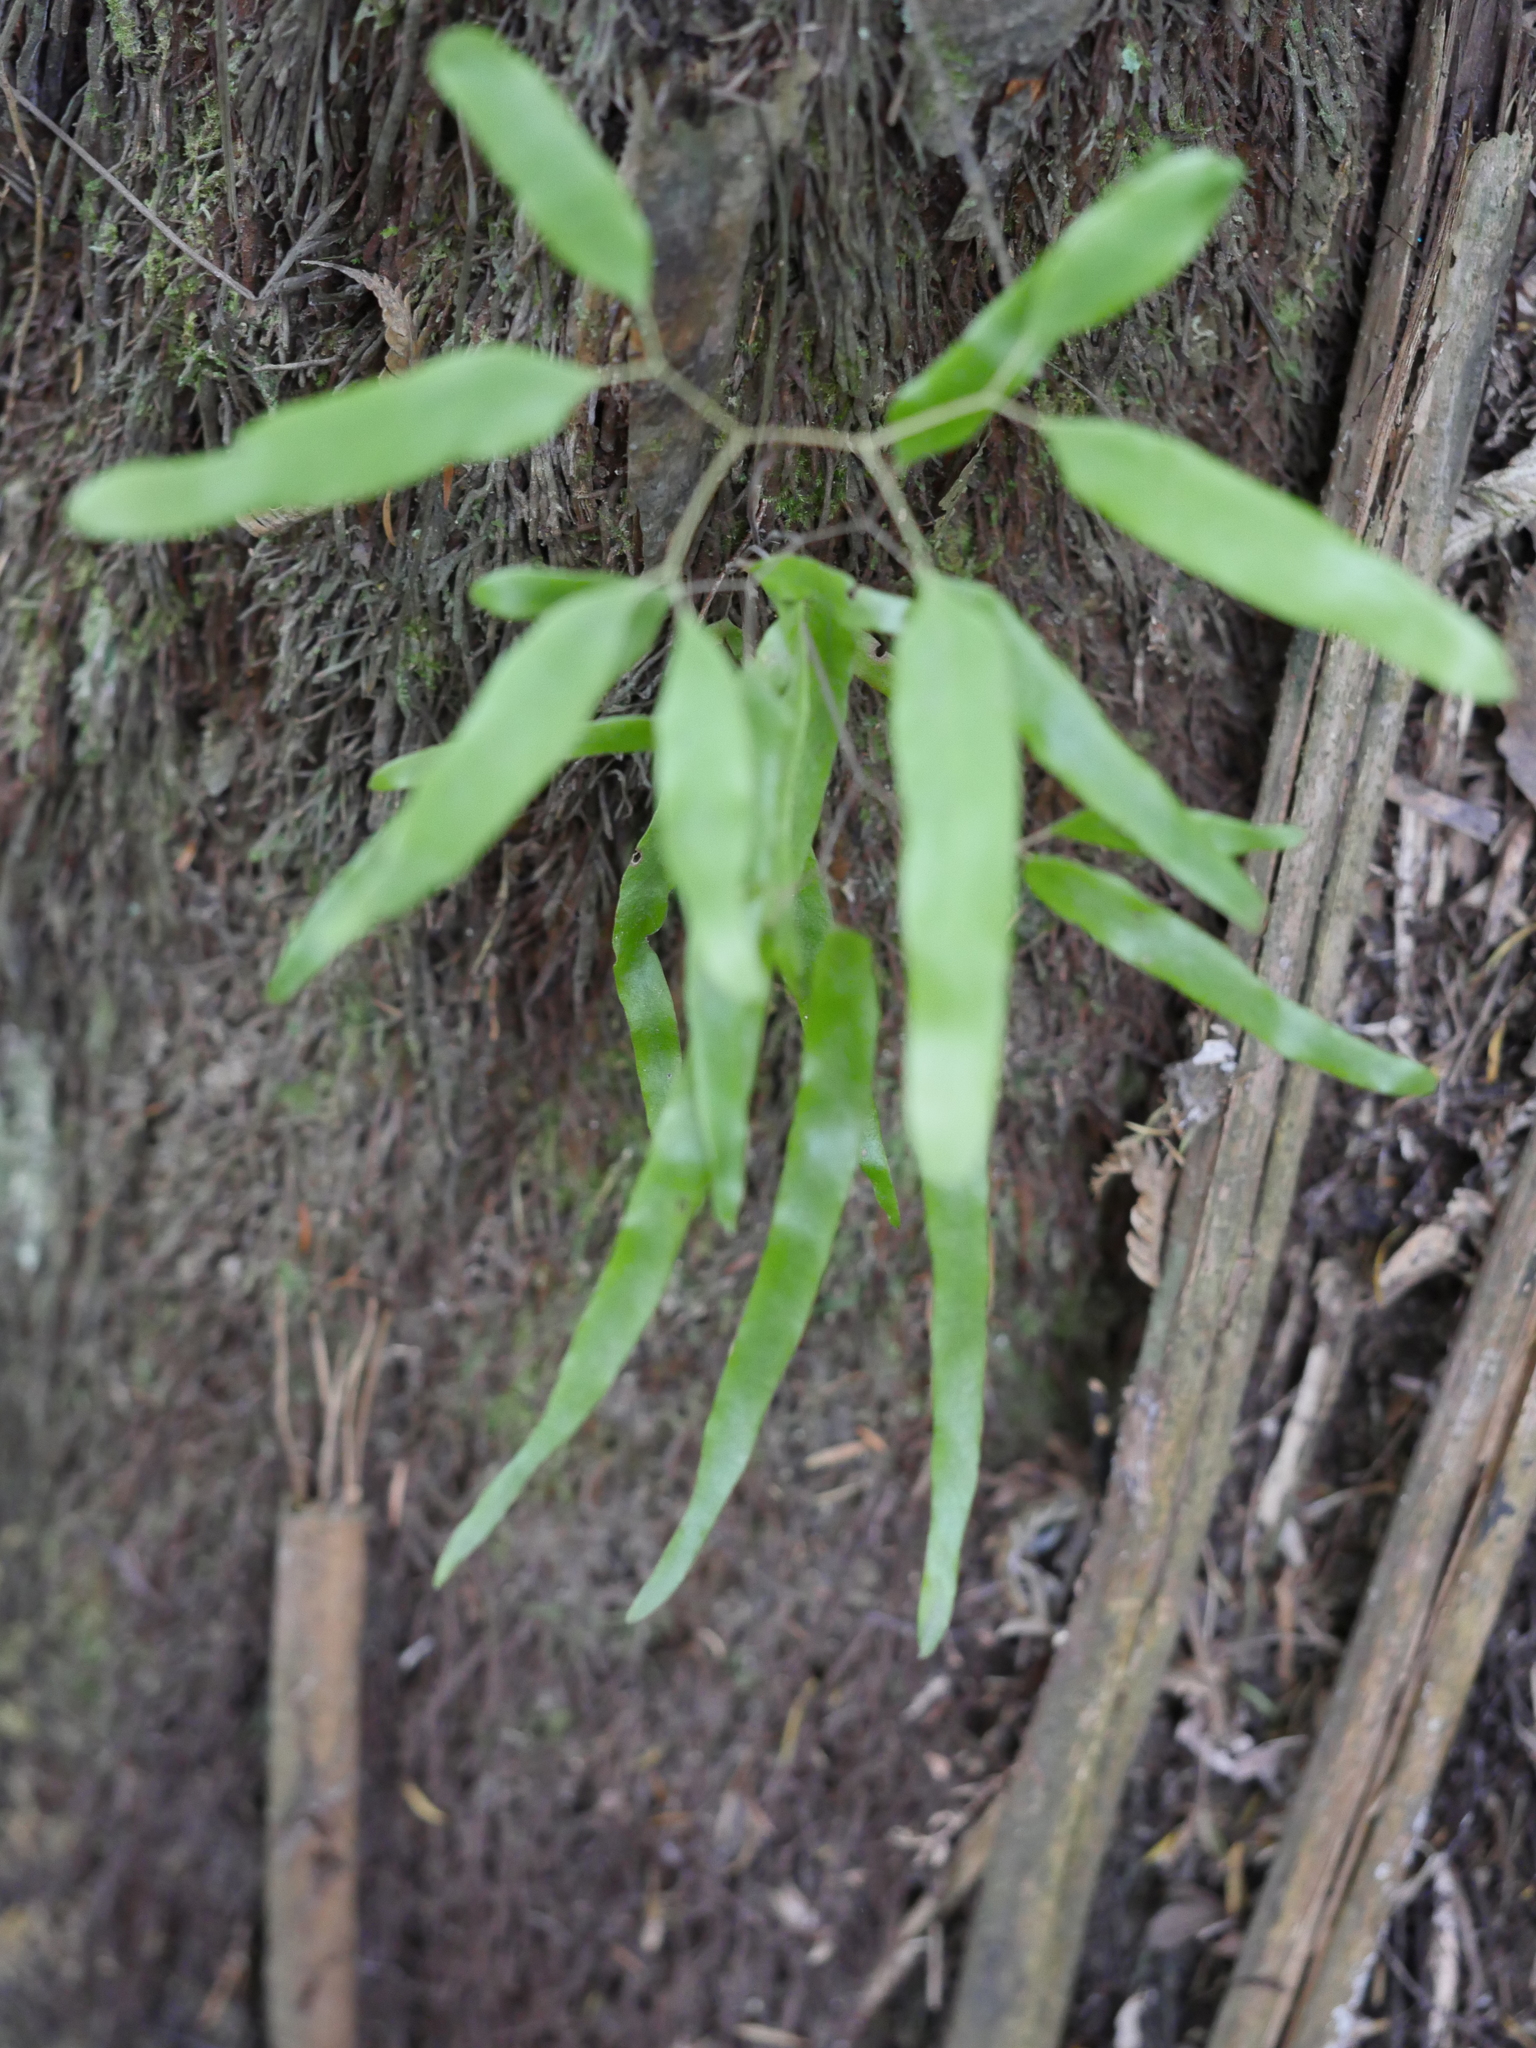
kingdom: Plantae
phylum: Tracheophyta
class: Polypodiopsida
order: Schizaeales
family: Lygodiaceae
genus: Lygodium
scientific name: Lygodium articulatum
